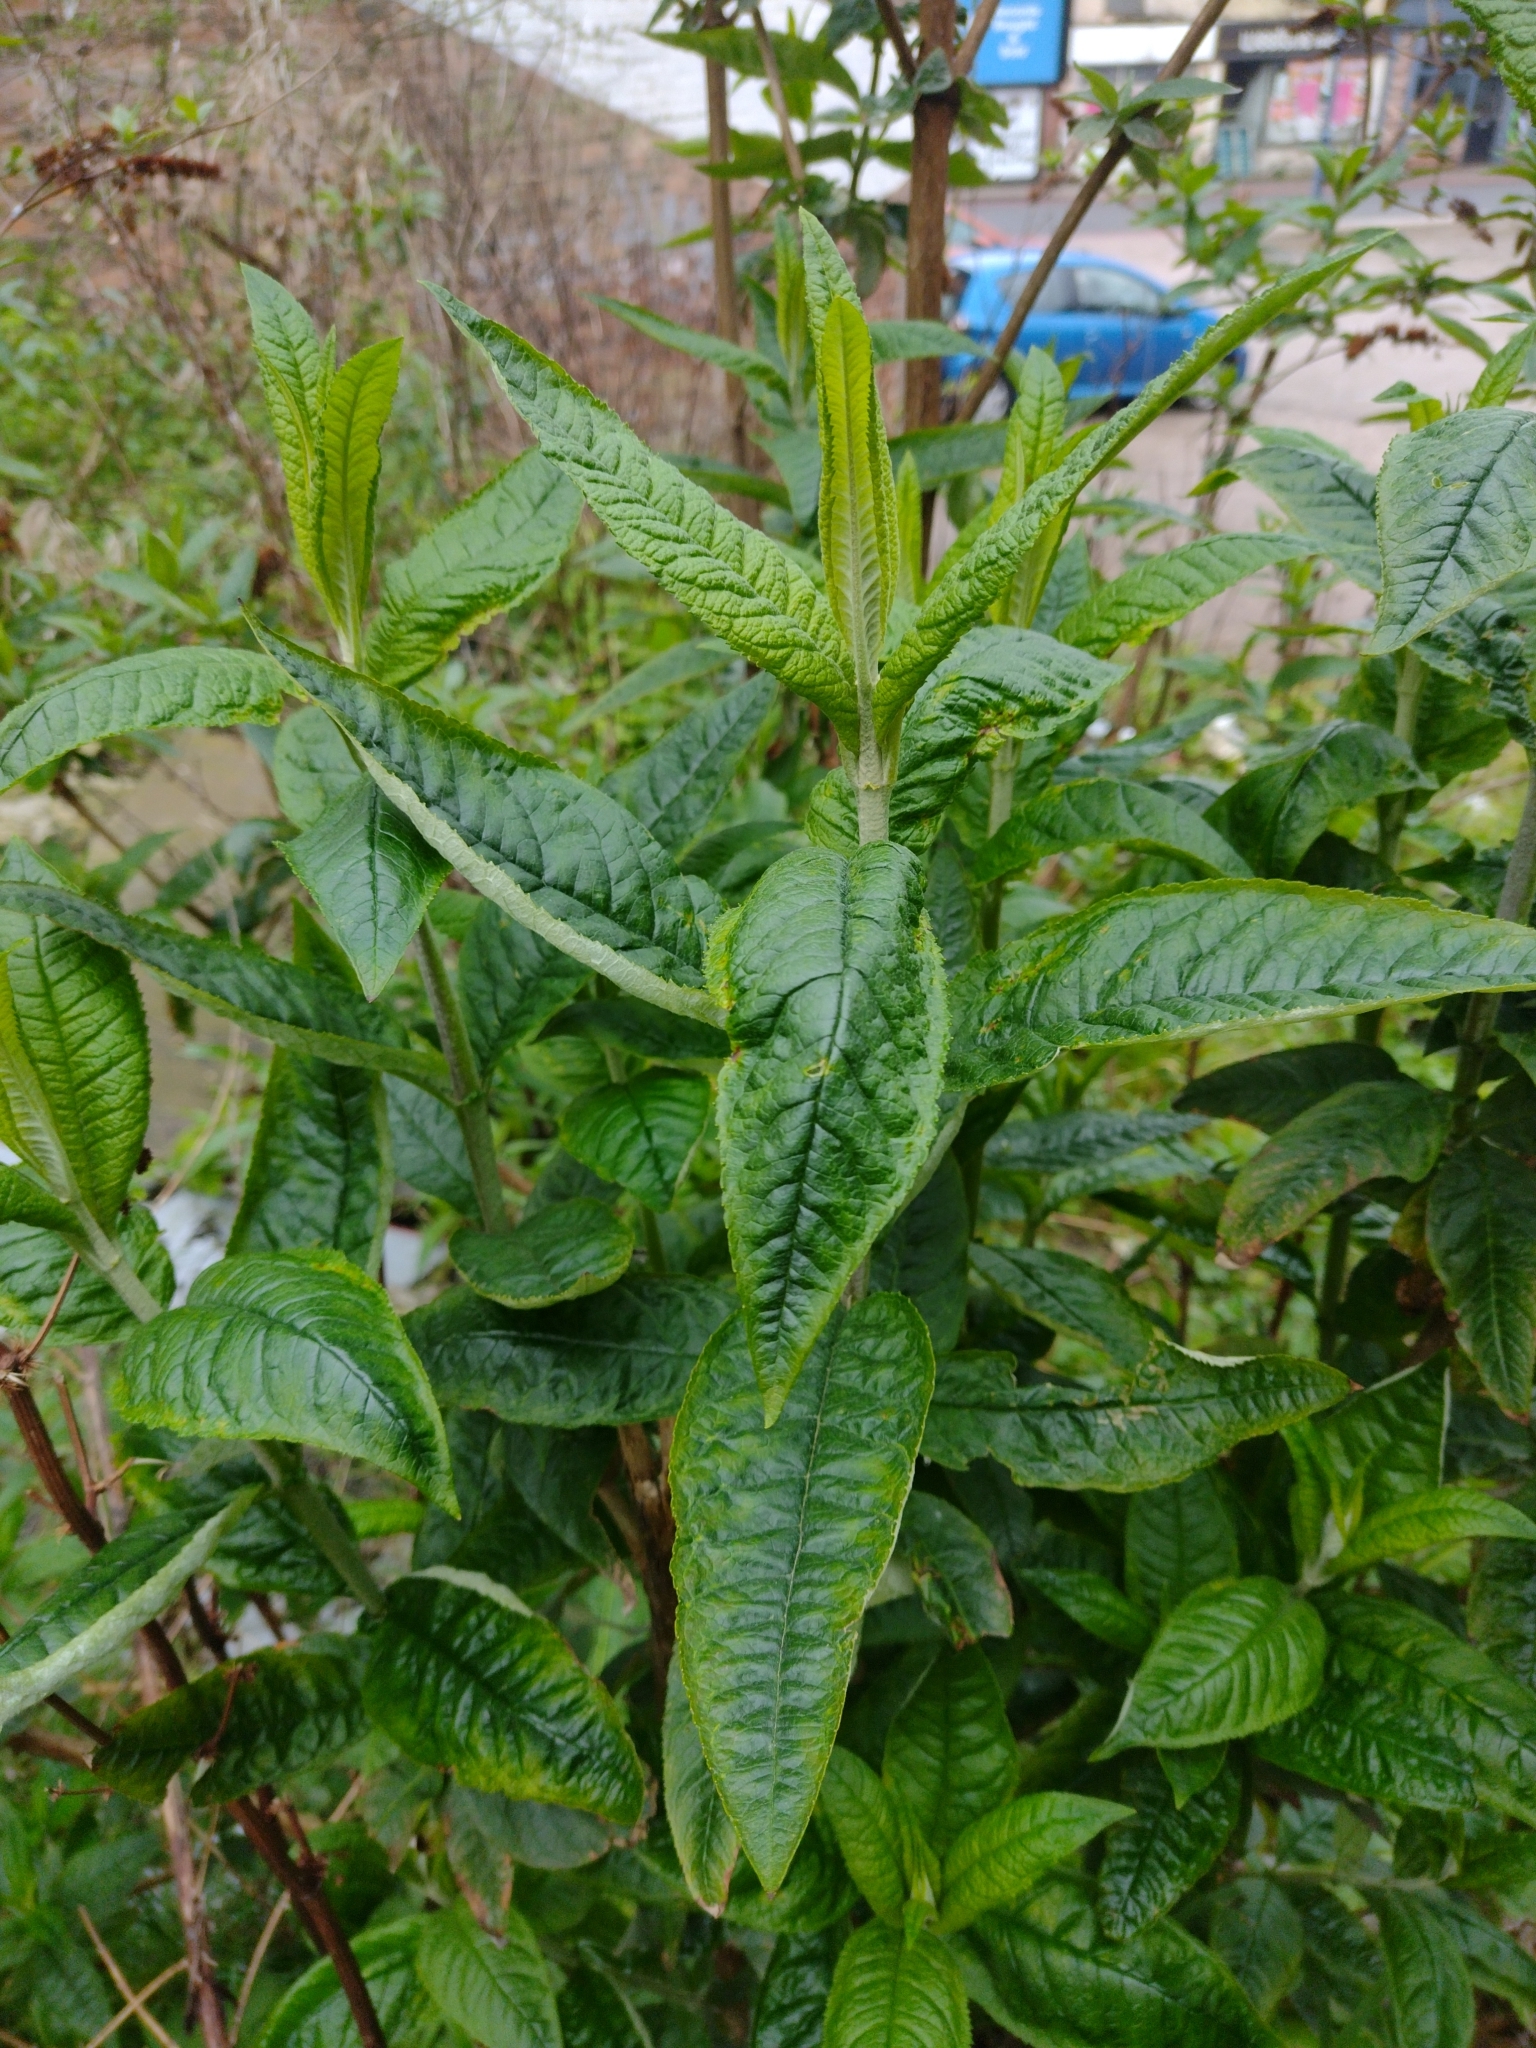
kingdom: Plantae
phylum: Tracheophyta
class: Magnoliopsida
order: Lamiales
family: Scrophulariaceae
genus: Buddleja
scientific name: Buddleja davidii
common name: Butterfly-bush
